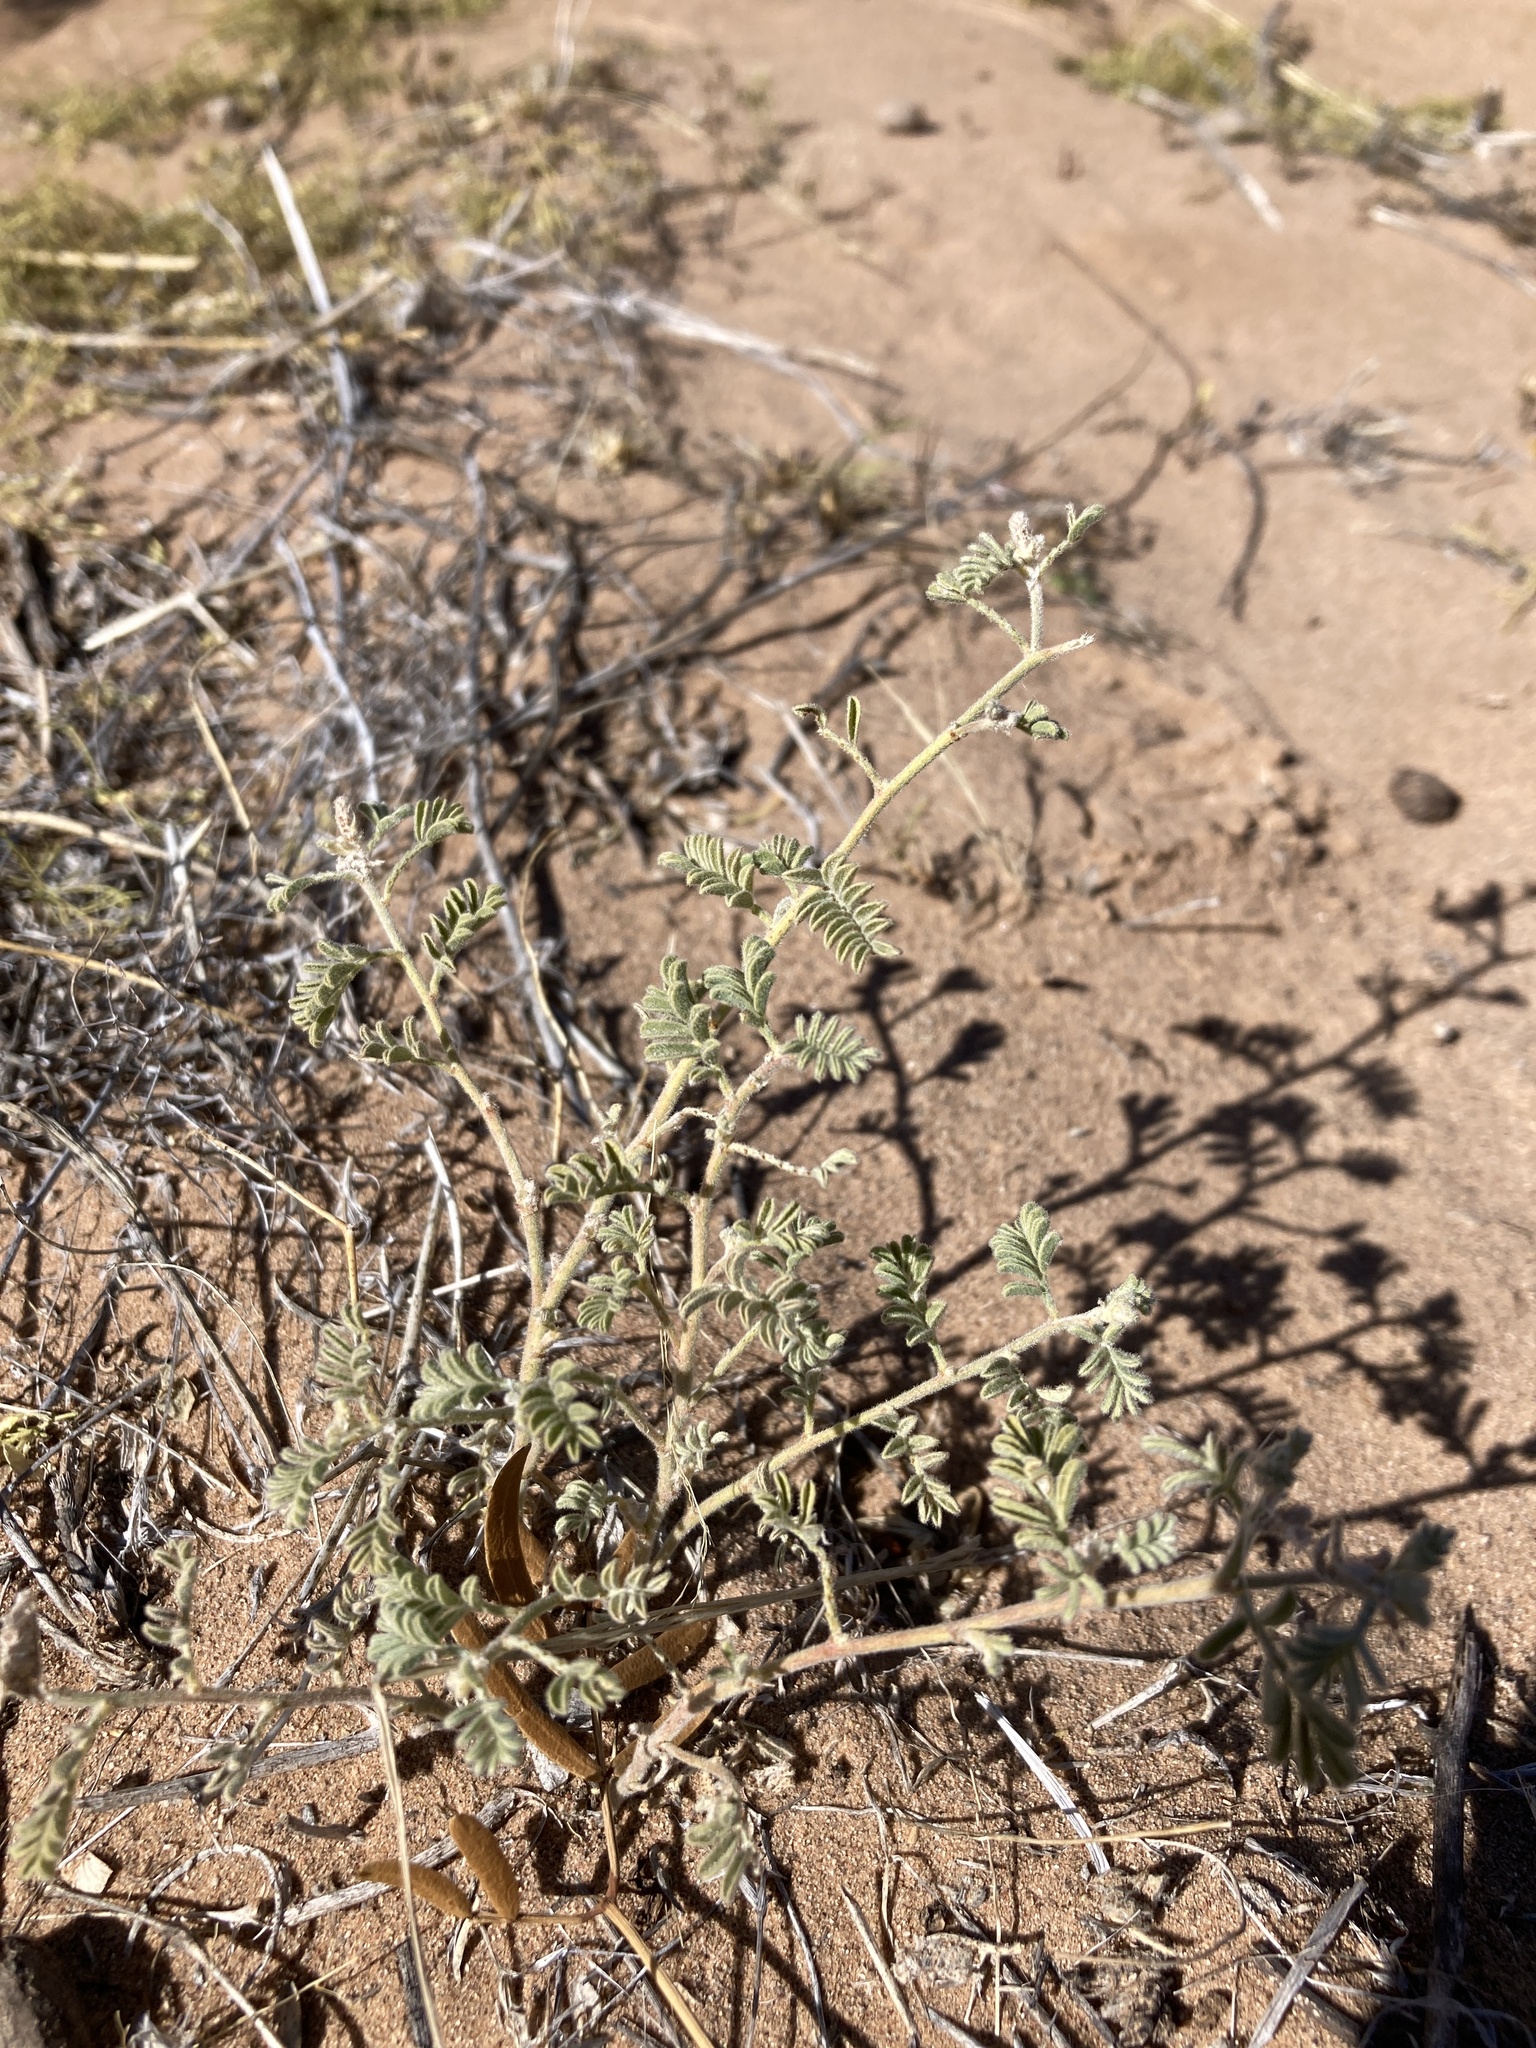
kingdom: Plantae
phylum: Tracheophyta
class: Magnoliopsida
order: Fabales
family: Fabaceae
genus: Dalea
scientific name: Dalea lanata
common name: Woolly dalea
